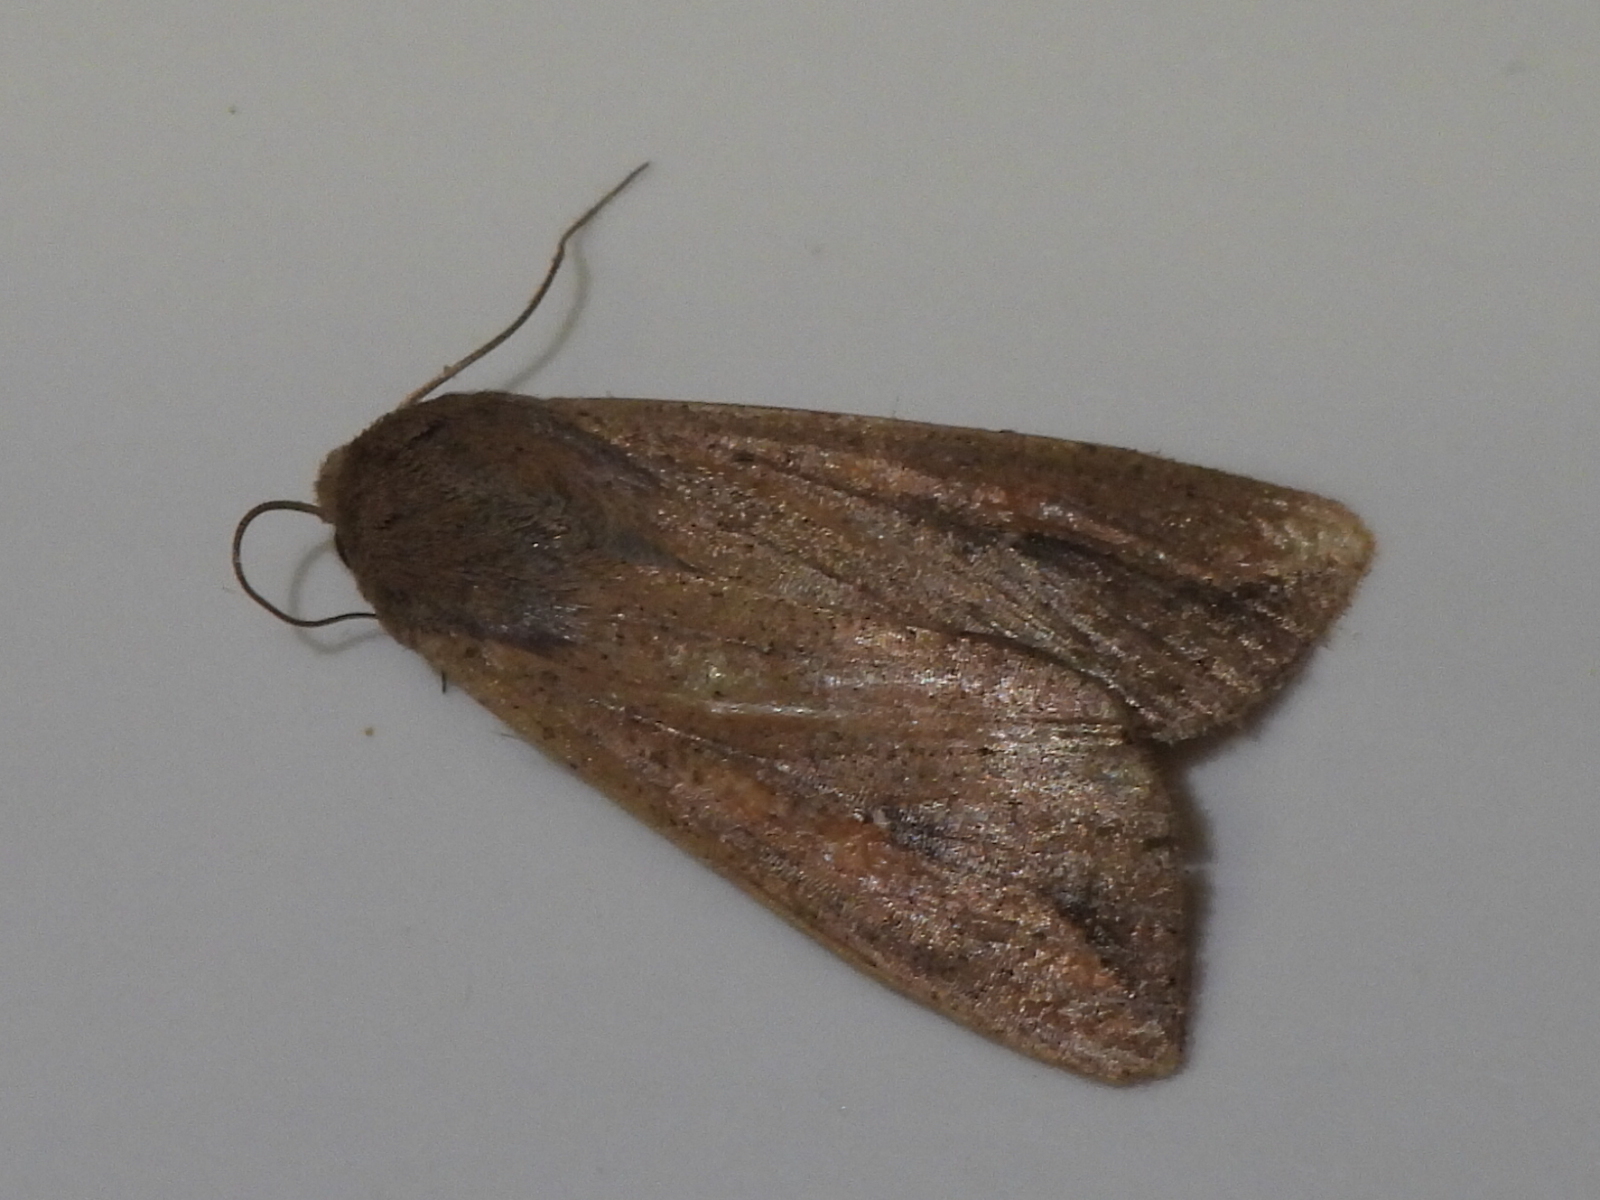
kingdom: Animalia
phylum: Arthropoda
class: Insecta
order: Lepidoptera
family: Noctuidae
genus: Mythimna
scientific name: Mythimna unipuncta
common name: White-speck
